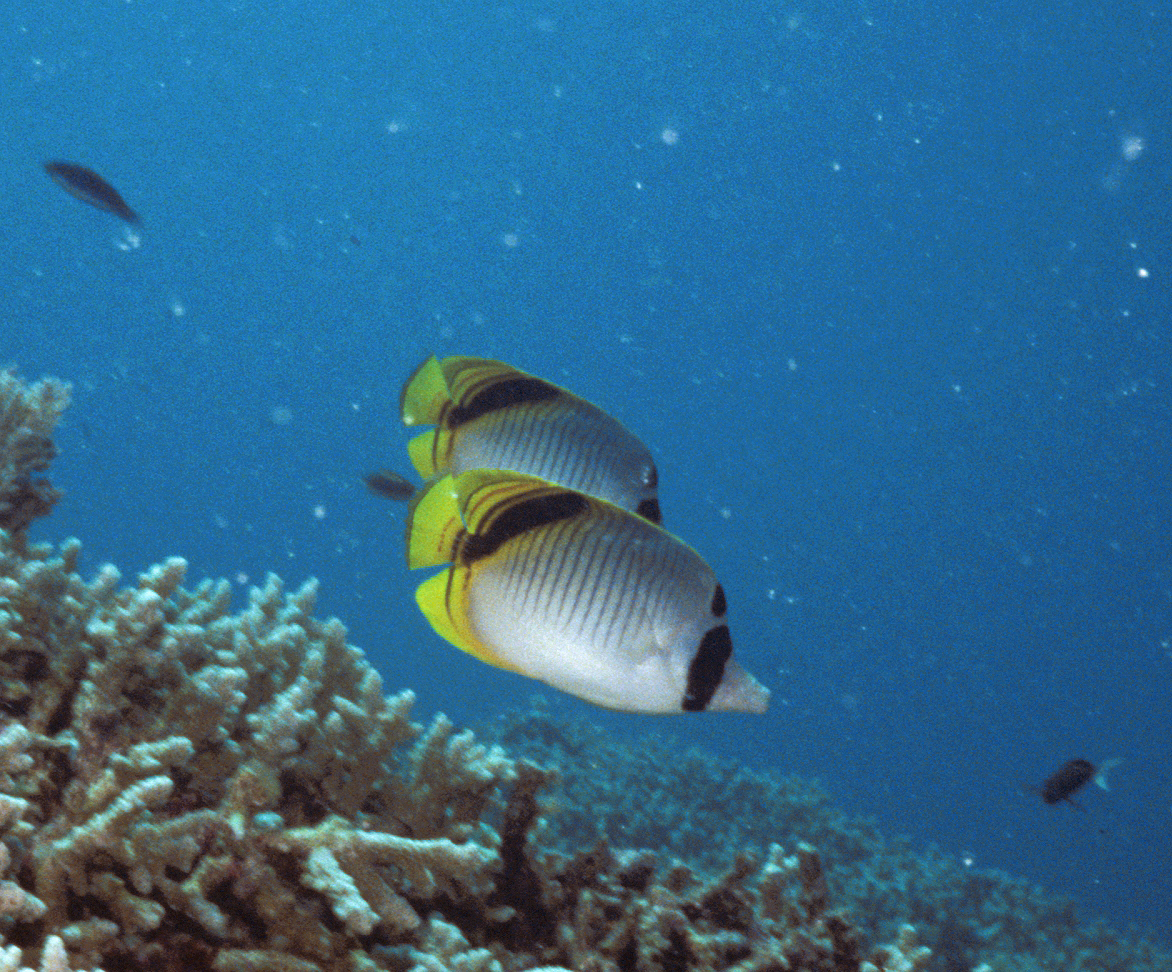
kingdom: Animalia
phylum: Chordata
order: Perciformes
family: Chaetodontidae
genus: Chaetodon
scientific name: Chaetodon oxycephalus
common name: Spot-nape butterflyfish
